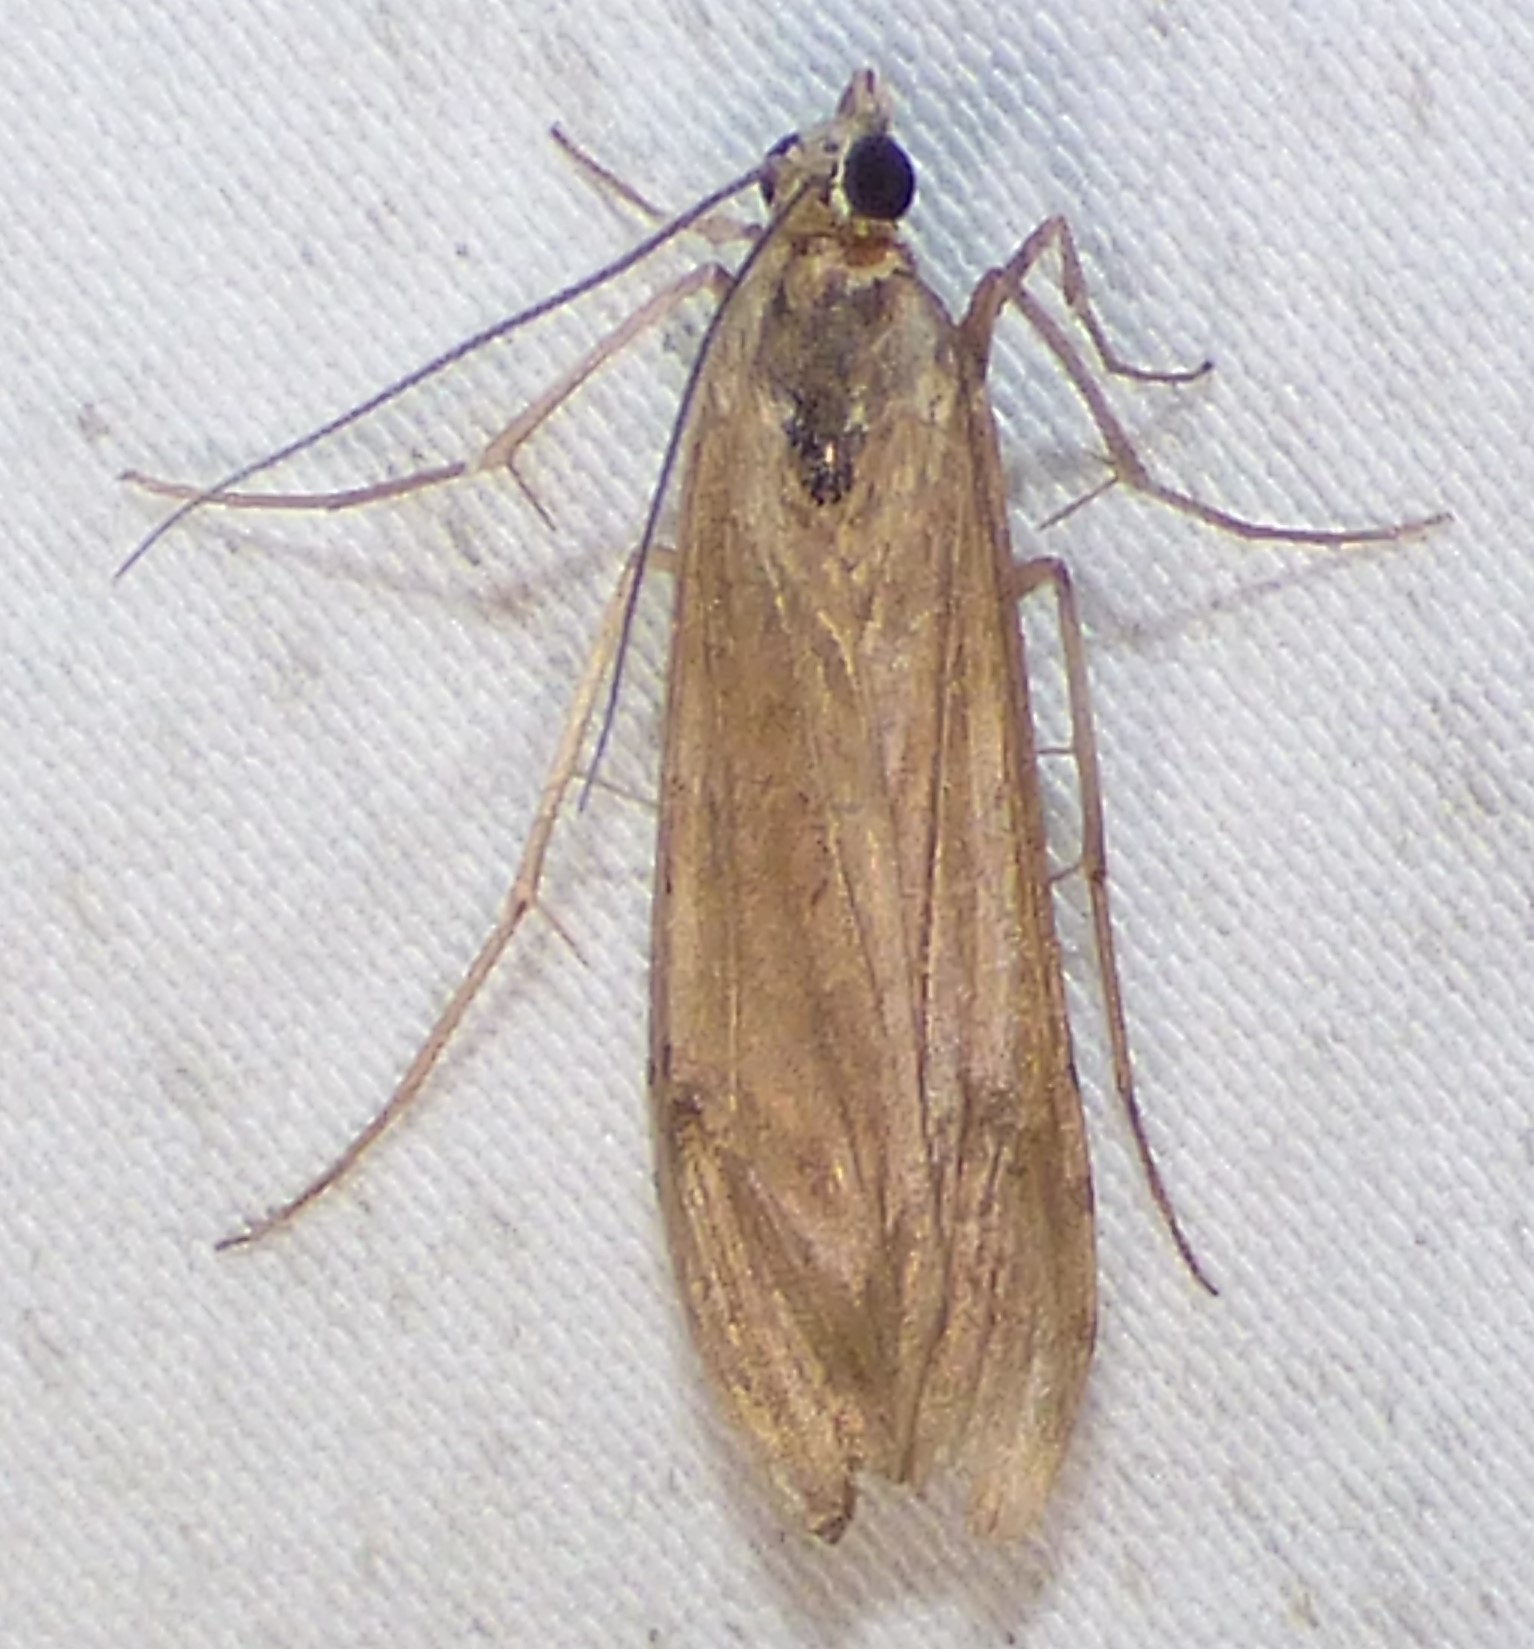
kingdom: Animalia
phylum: Arthropoda
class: Insecta
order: Lepidoptera
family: Crambidae
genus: Nomophila
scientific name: Nomophila nearctica
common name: American rush veneer
